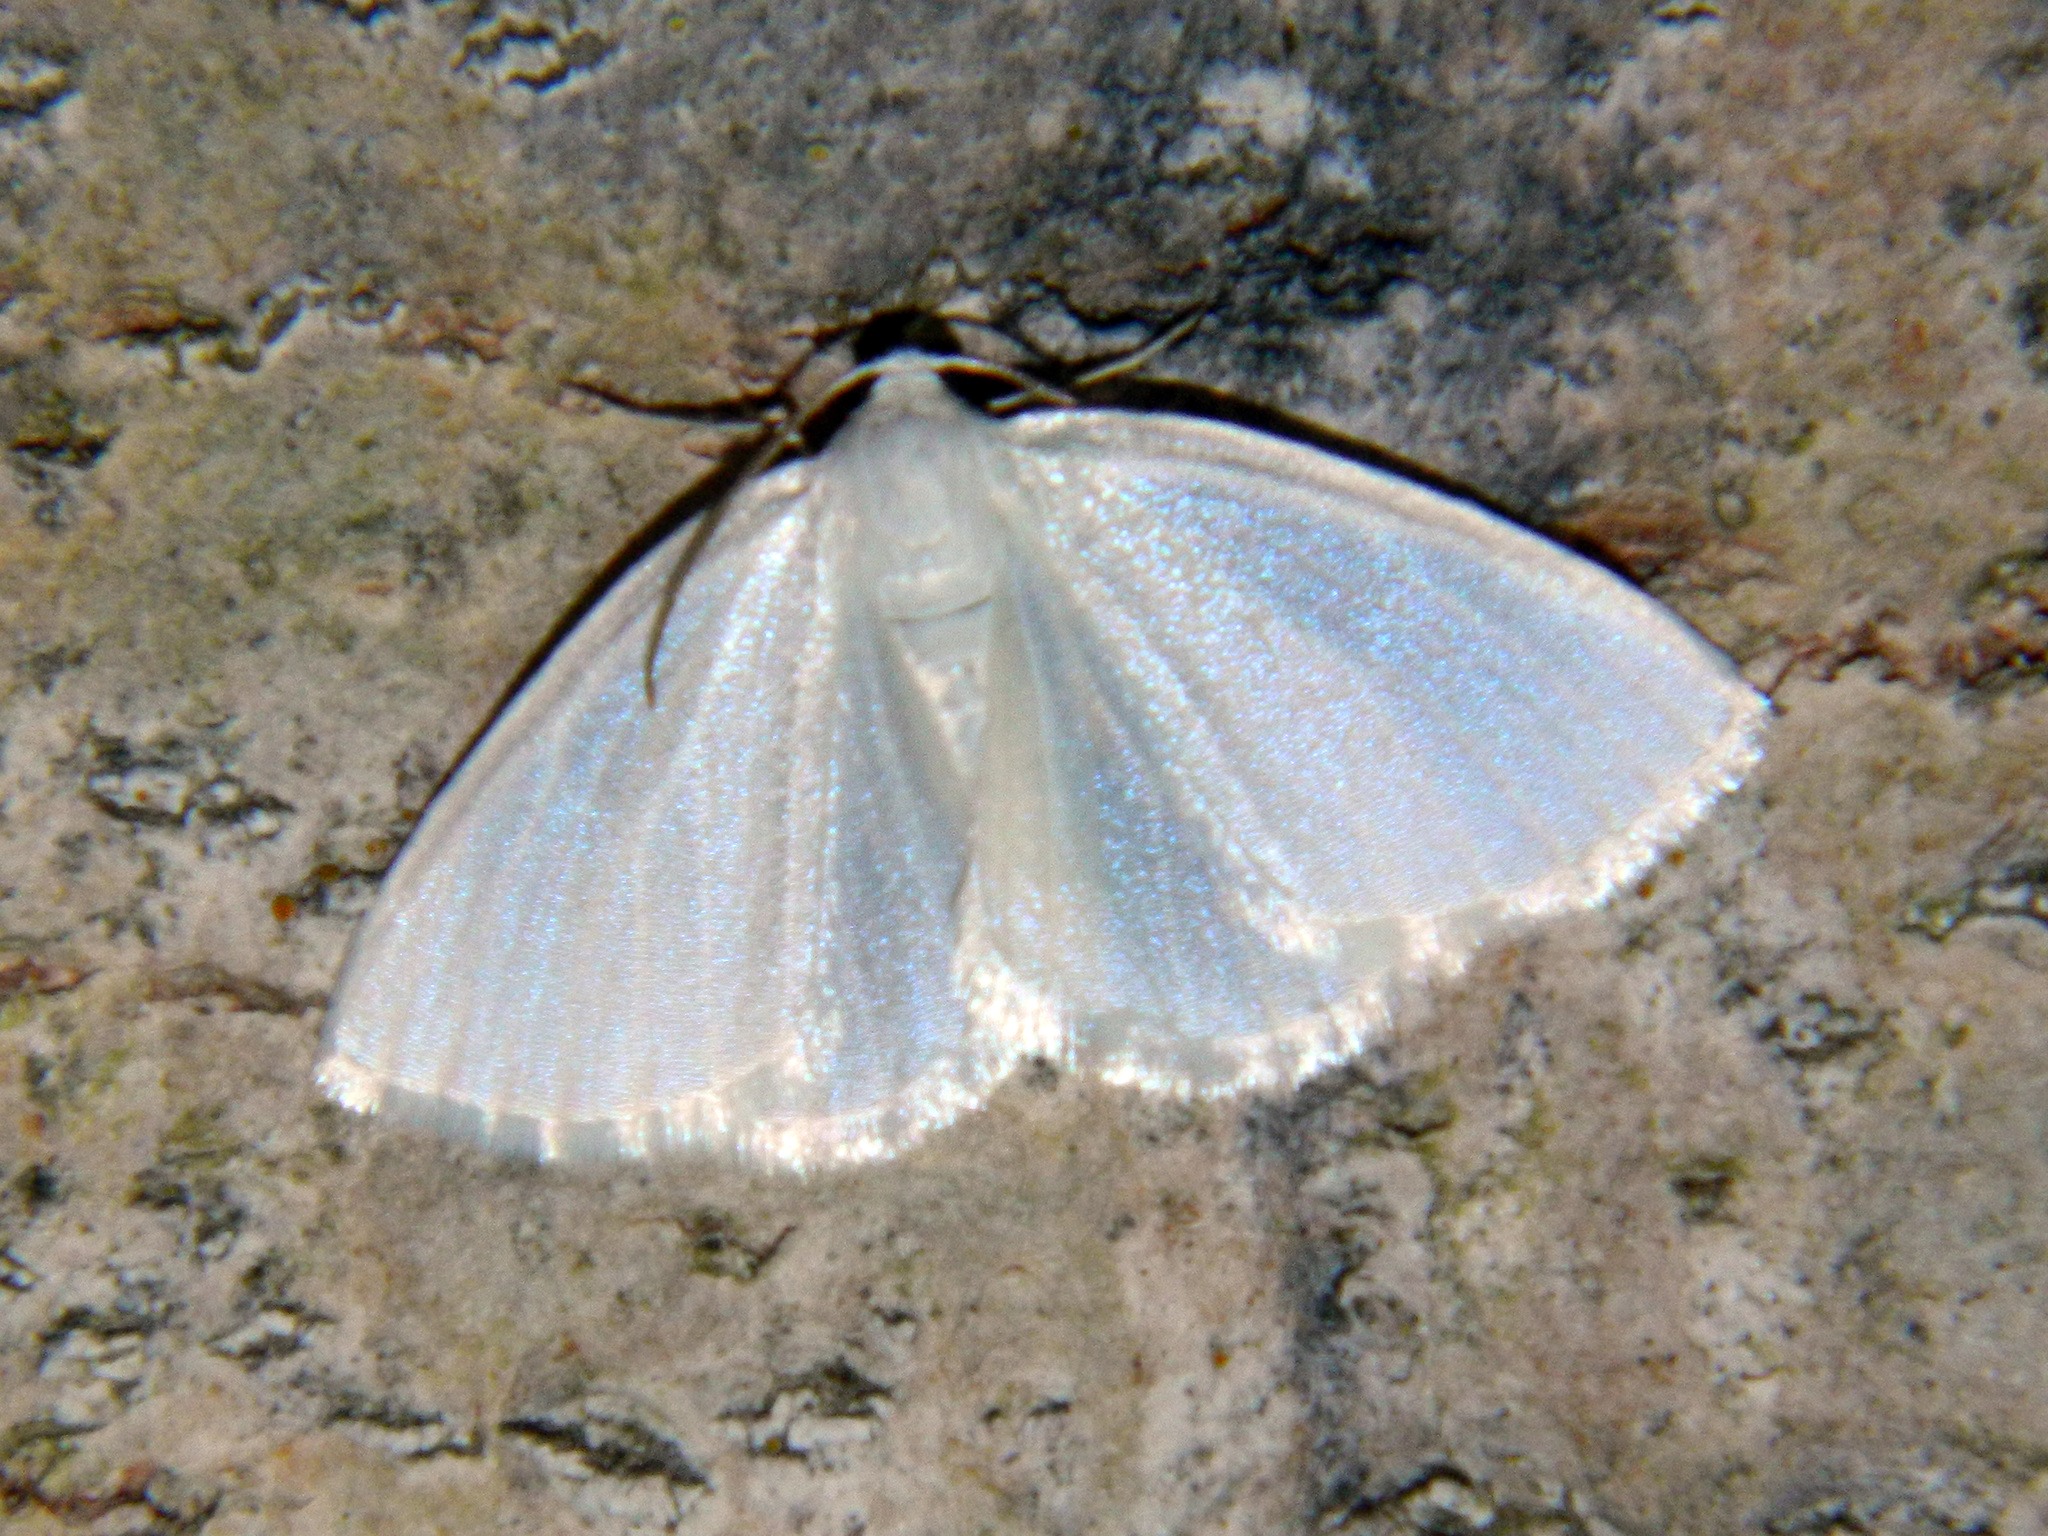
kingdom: Animalia
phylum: Arthropoda
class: Insecta
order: Lepidoptera
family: Geometridae
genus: Lomographa
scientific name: Lomographa vestaliata
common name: White spring moth
